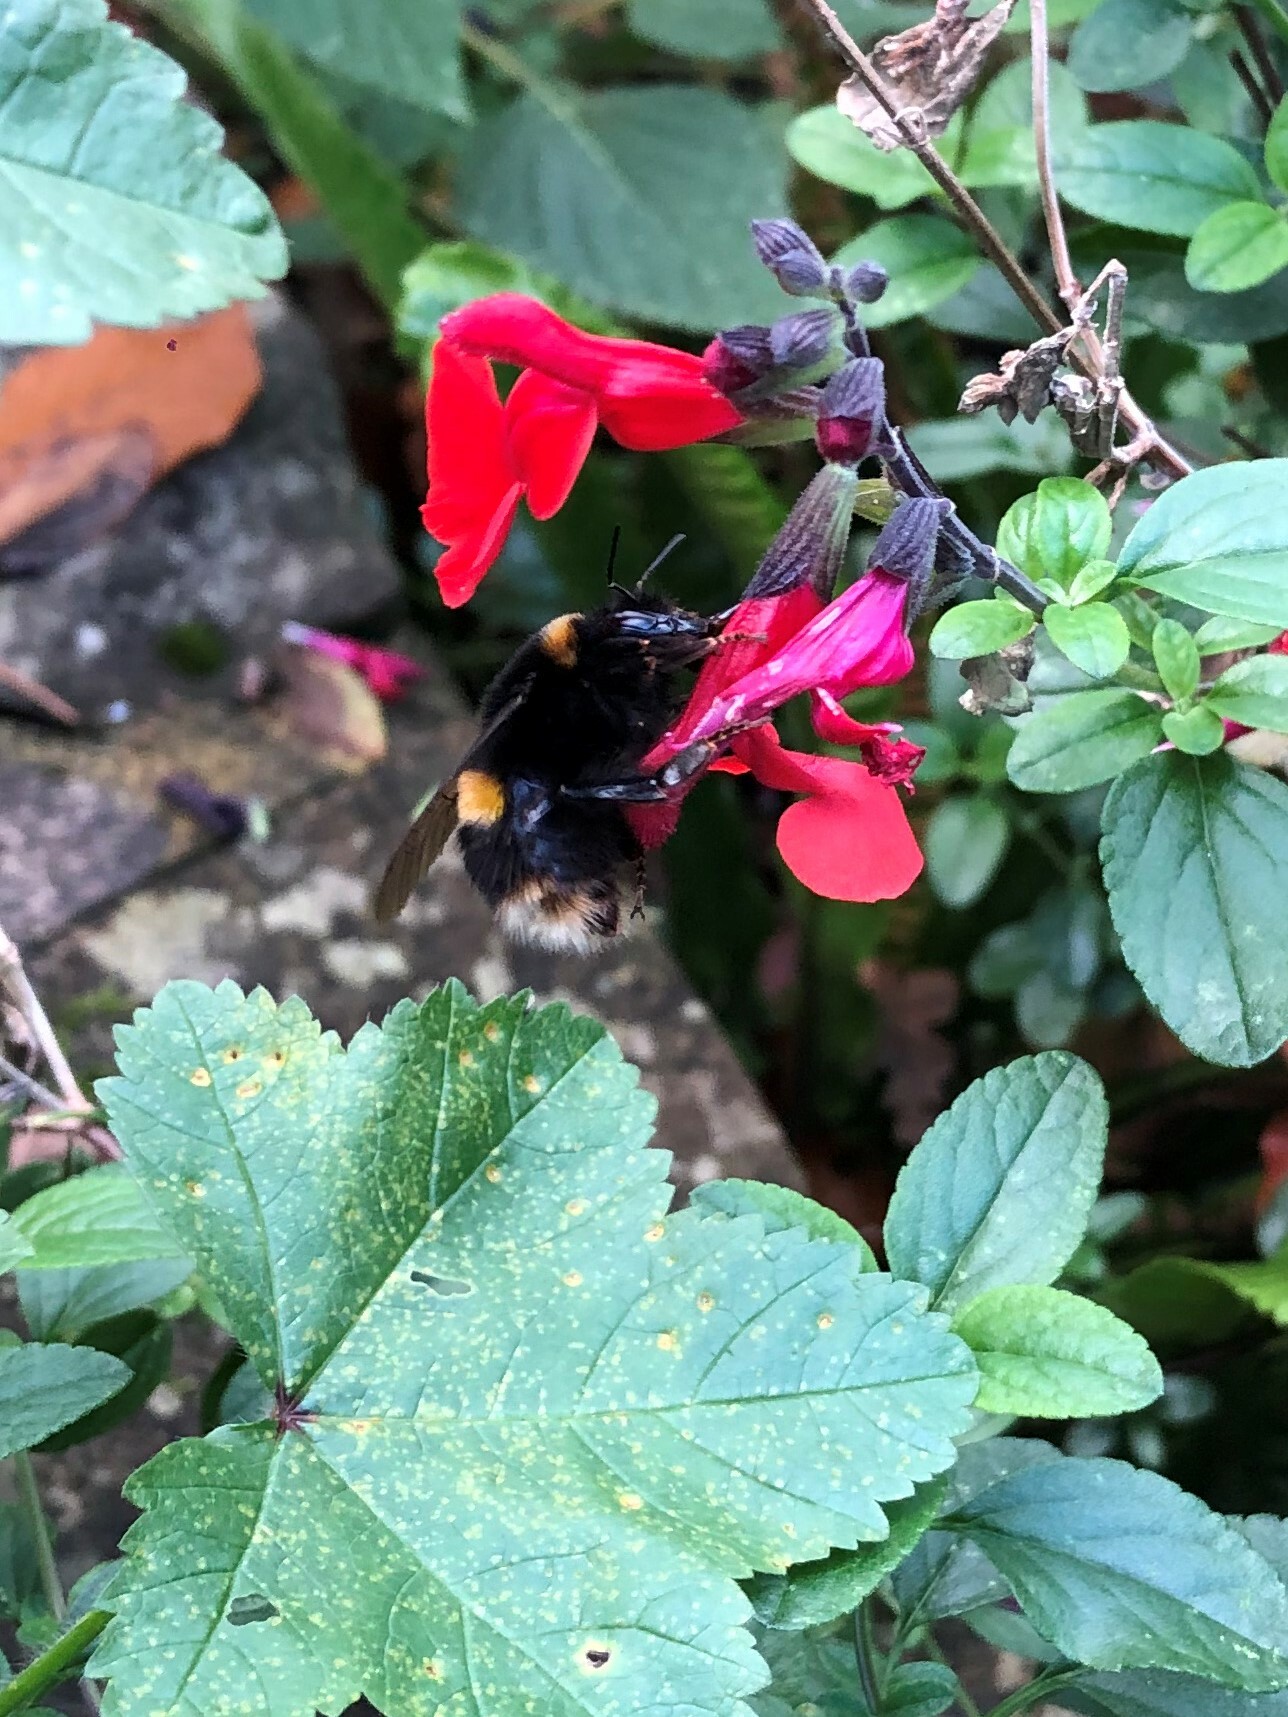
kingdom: Animalia
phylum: Arthropoda
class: Insecta
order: Hymenoptera
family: Apidae
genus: Bombus
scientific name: Bombus terrestris
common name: Buff-tailed bumblebee
